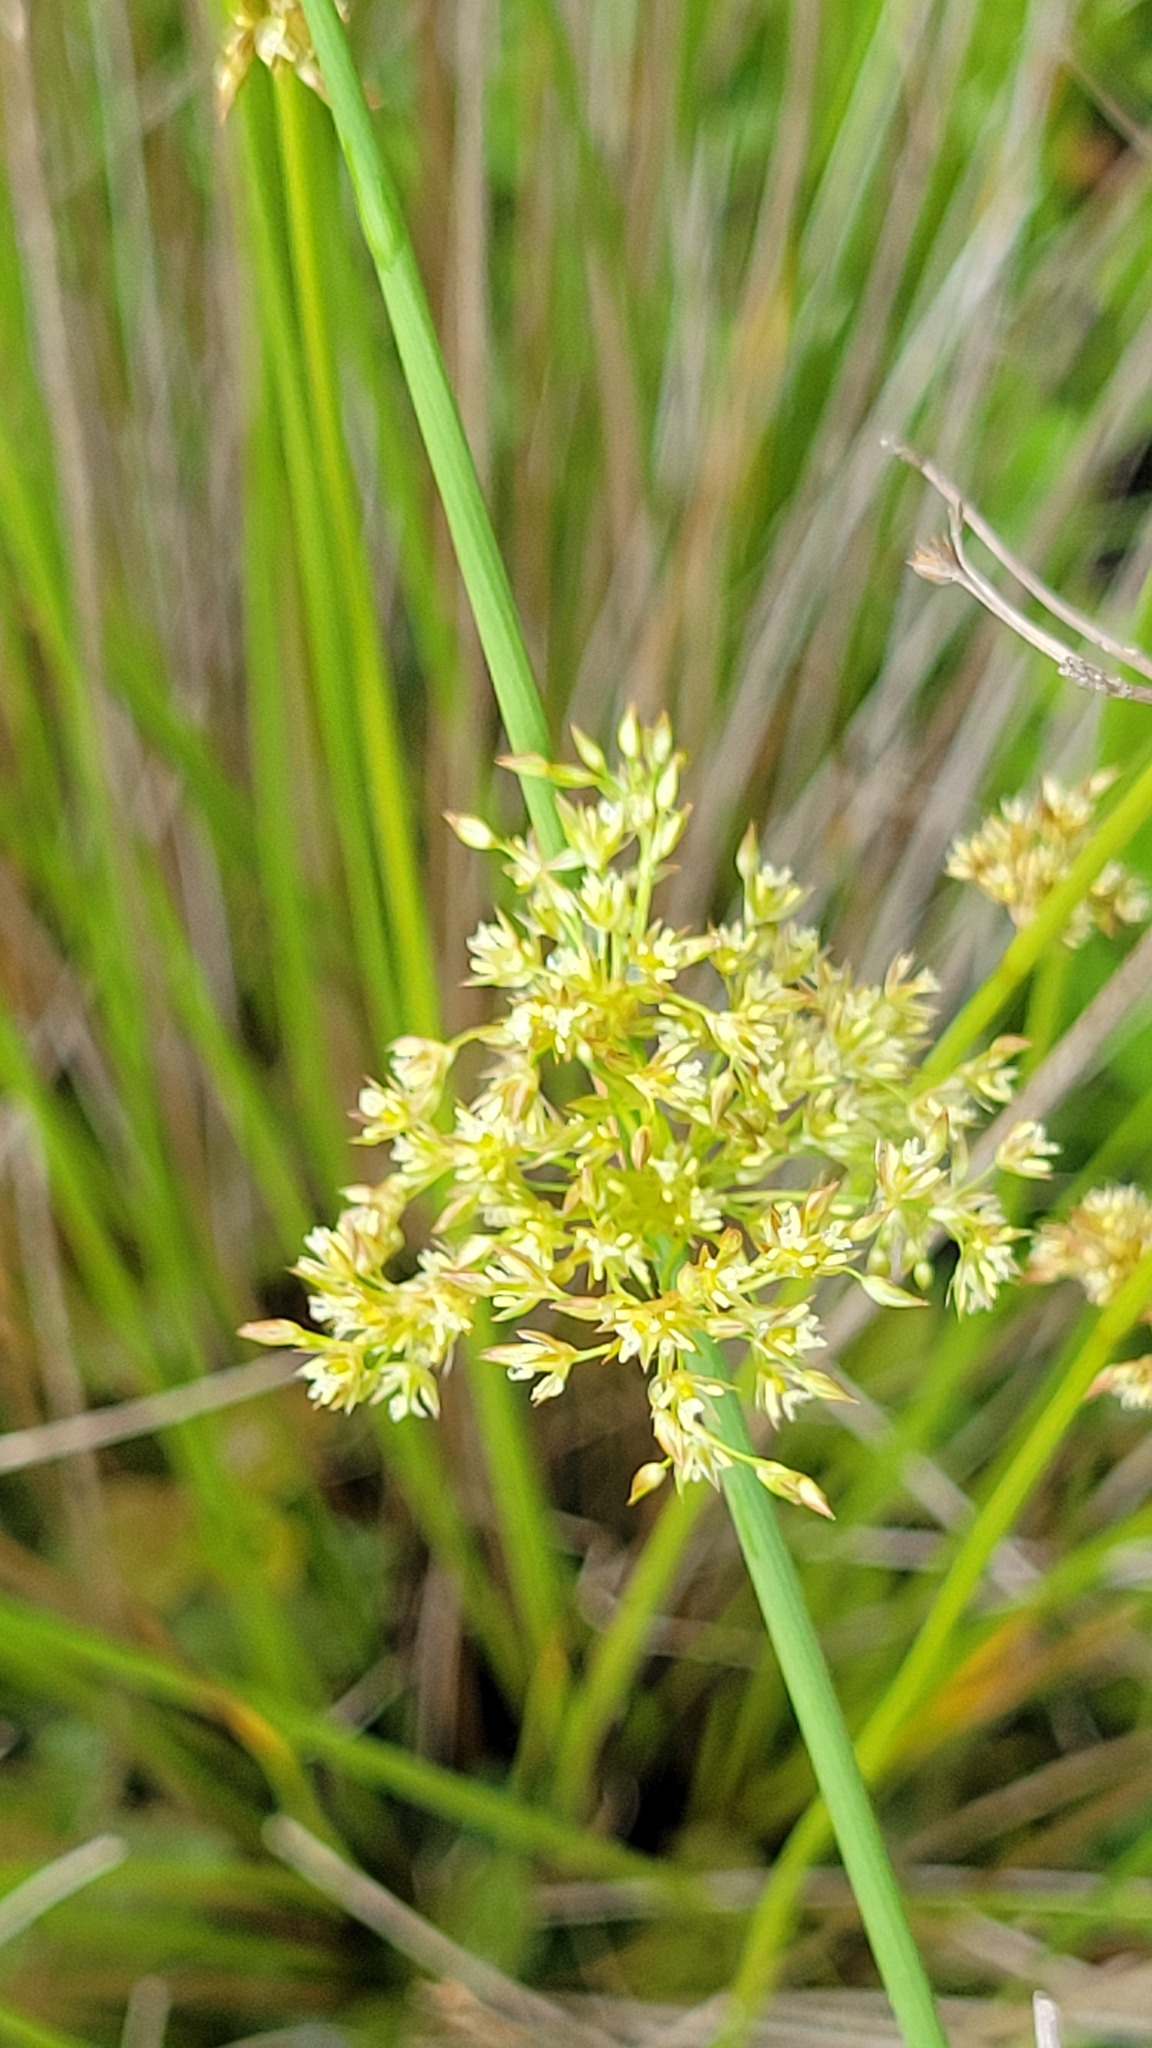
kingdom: Plantae
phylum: Tracheophyta
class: Liliopsida
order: Poales
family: Juncaceae
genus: Juncus
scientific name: Juncus pylaei
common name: Common rush
